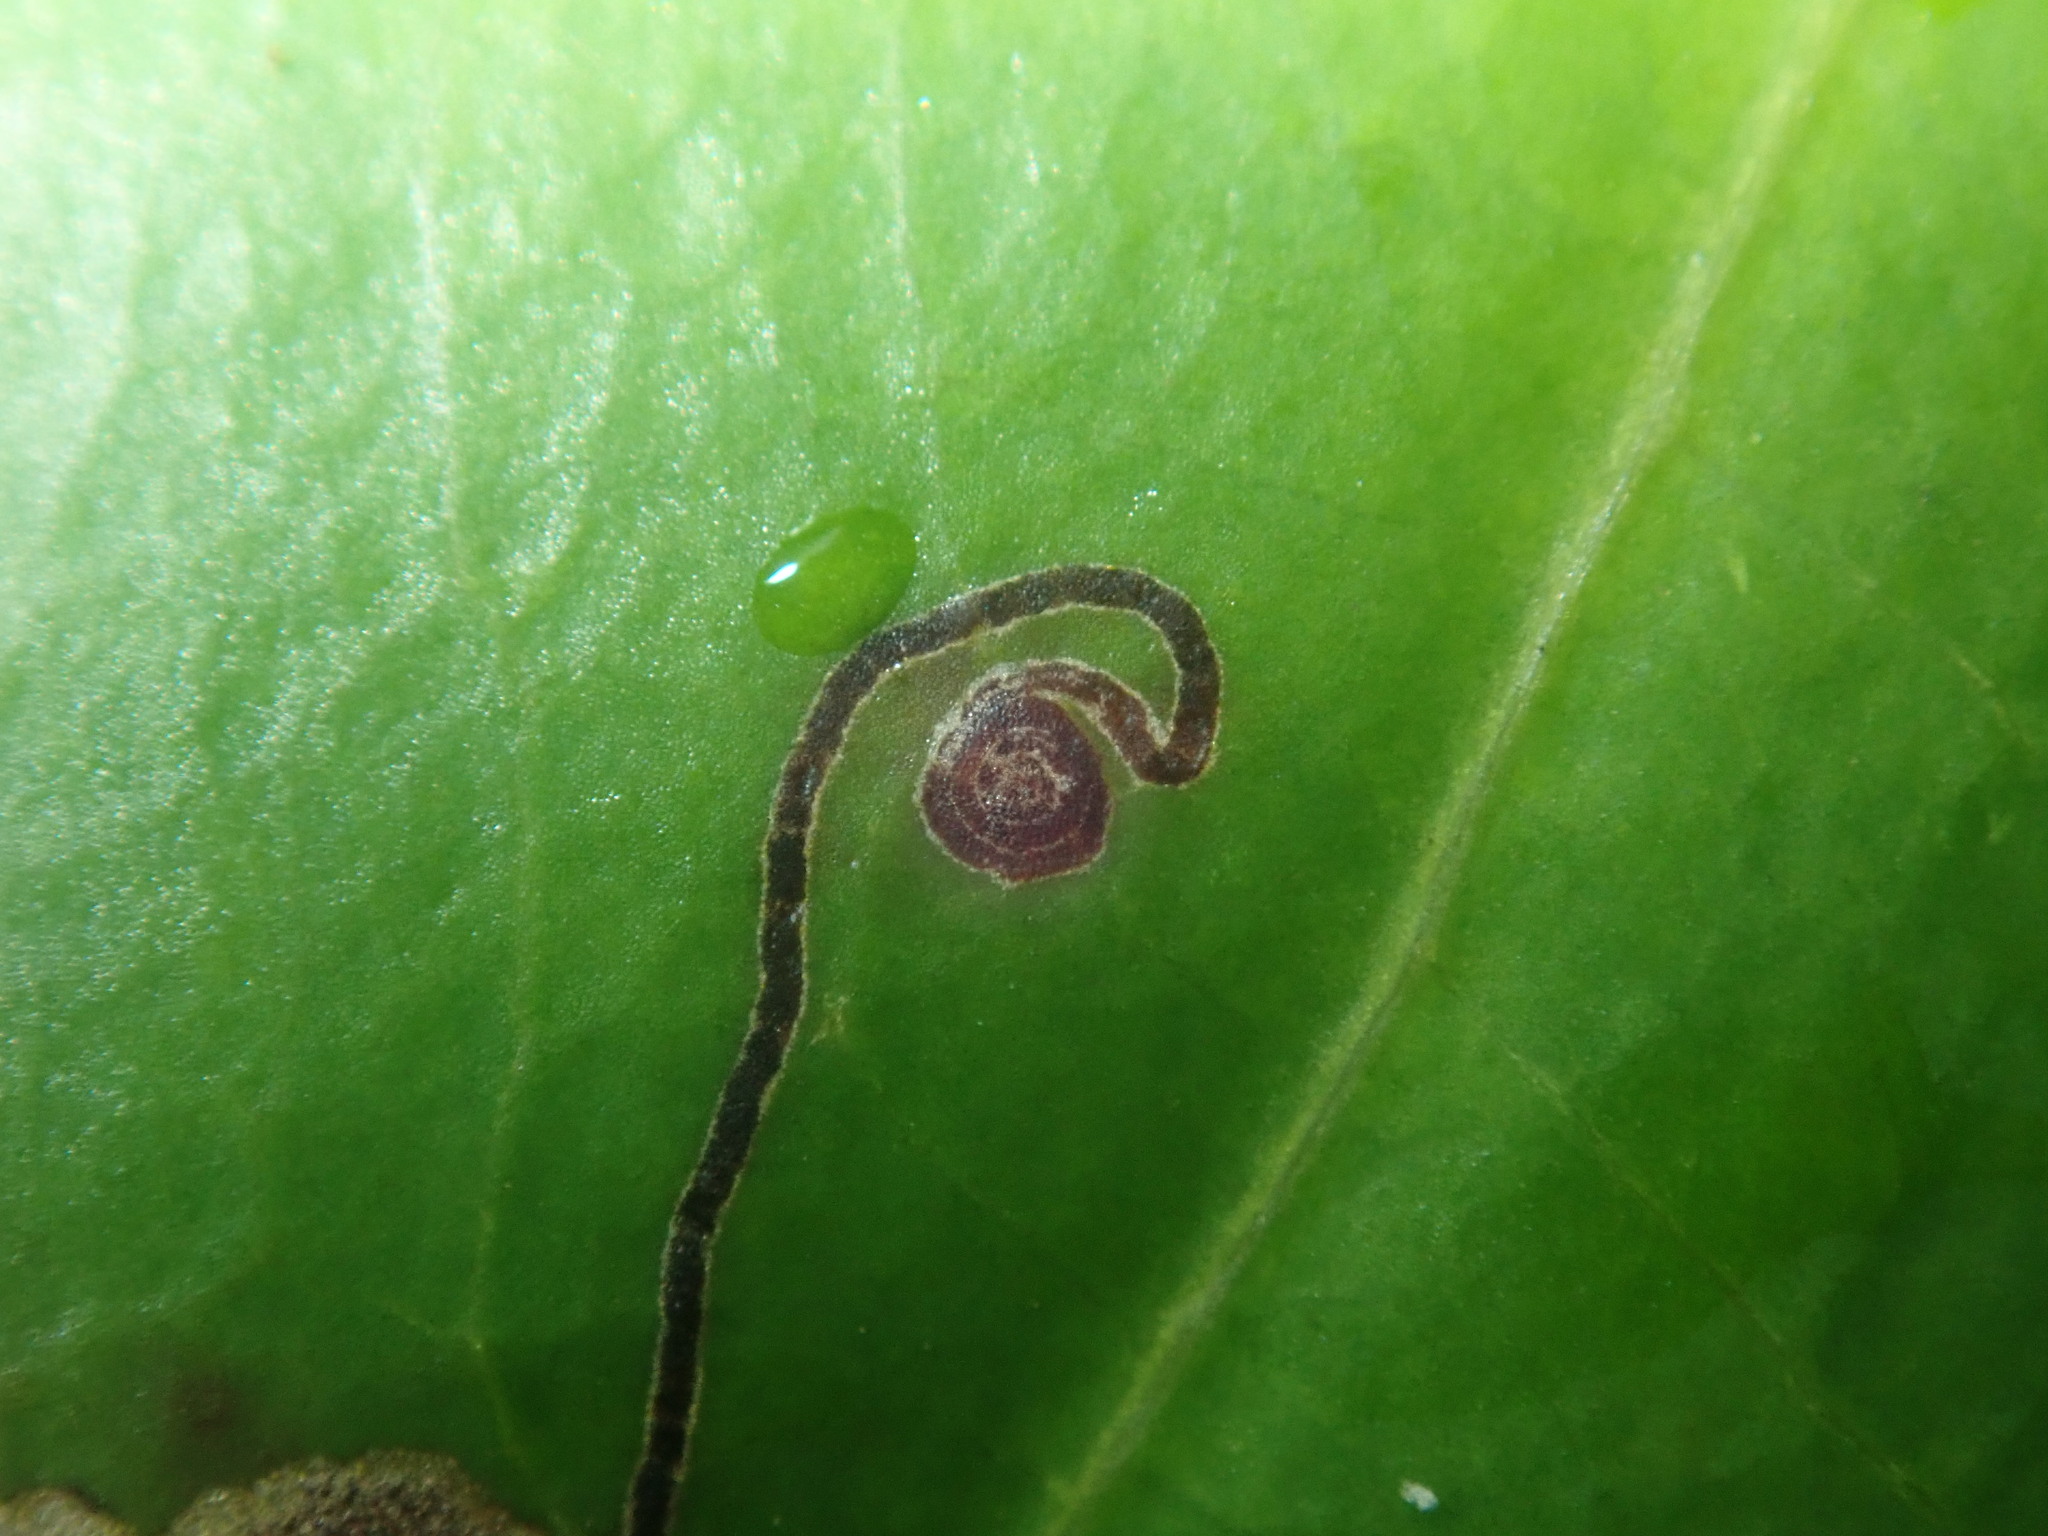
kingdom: Animalia
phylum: Arthropoda
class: Insecta
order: Lepidoptera
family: Nepticulidae
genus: Stigmella
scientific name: Stigmella phyllanthina
